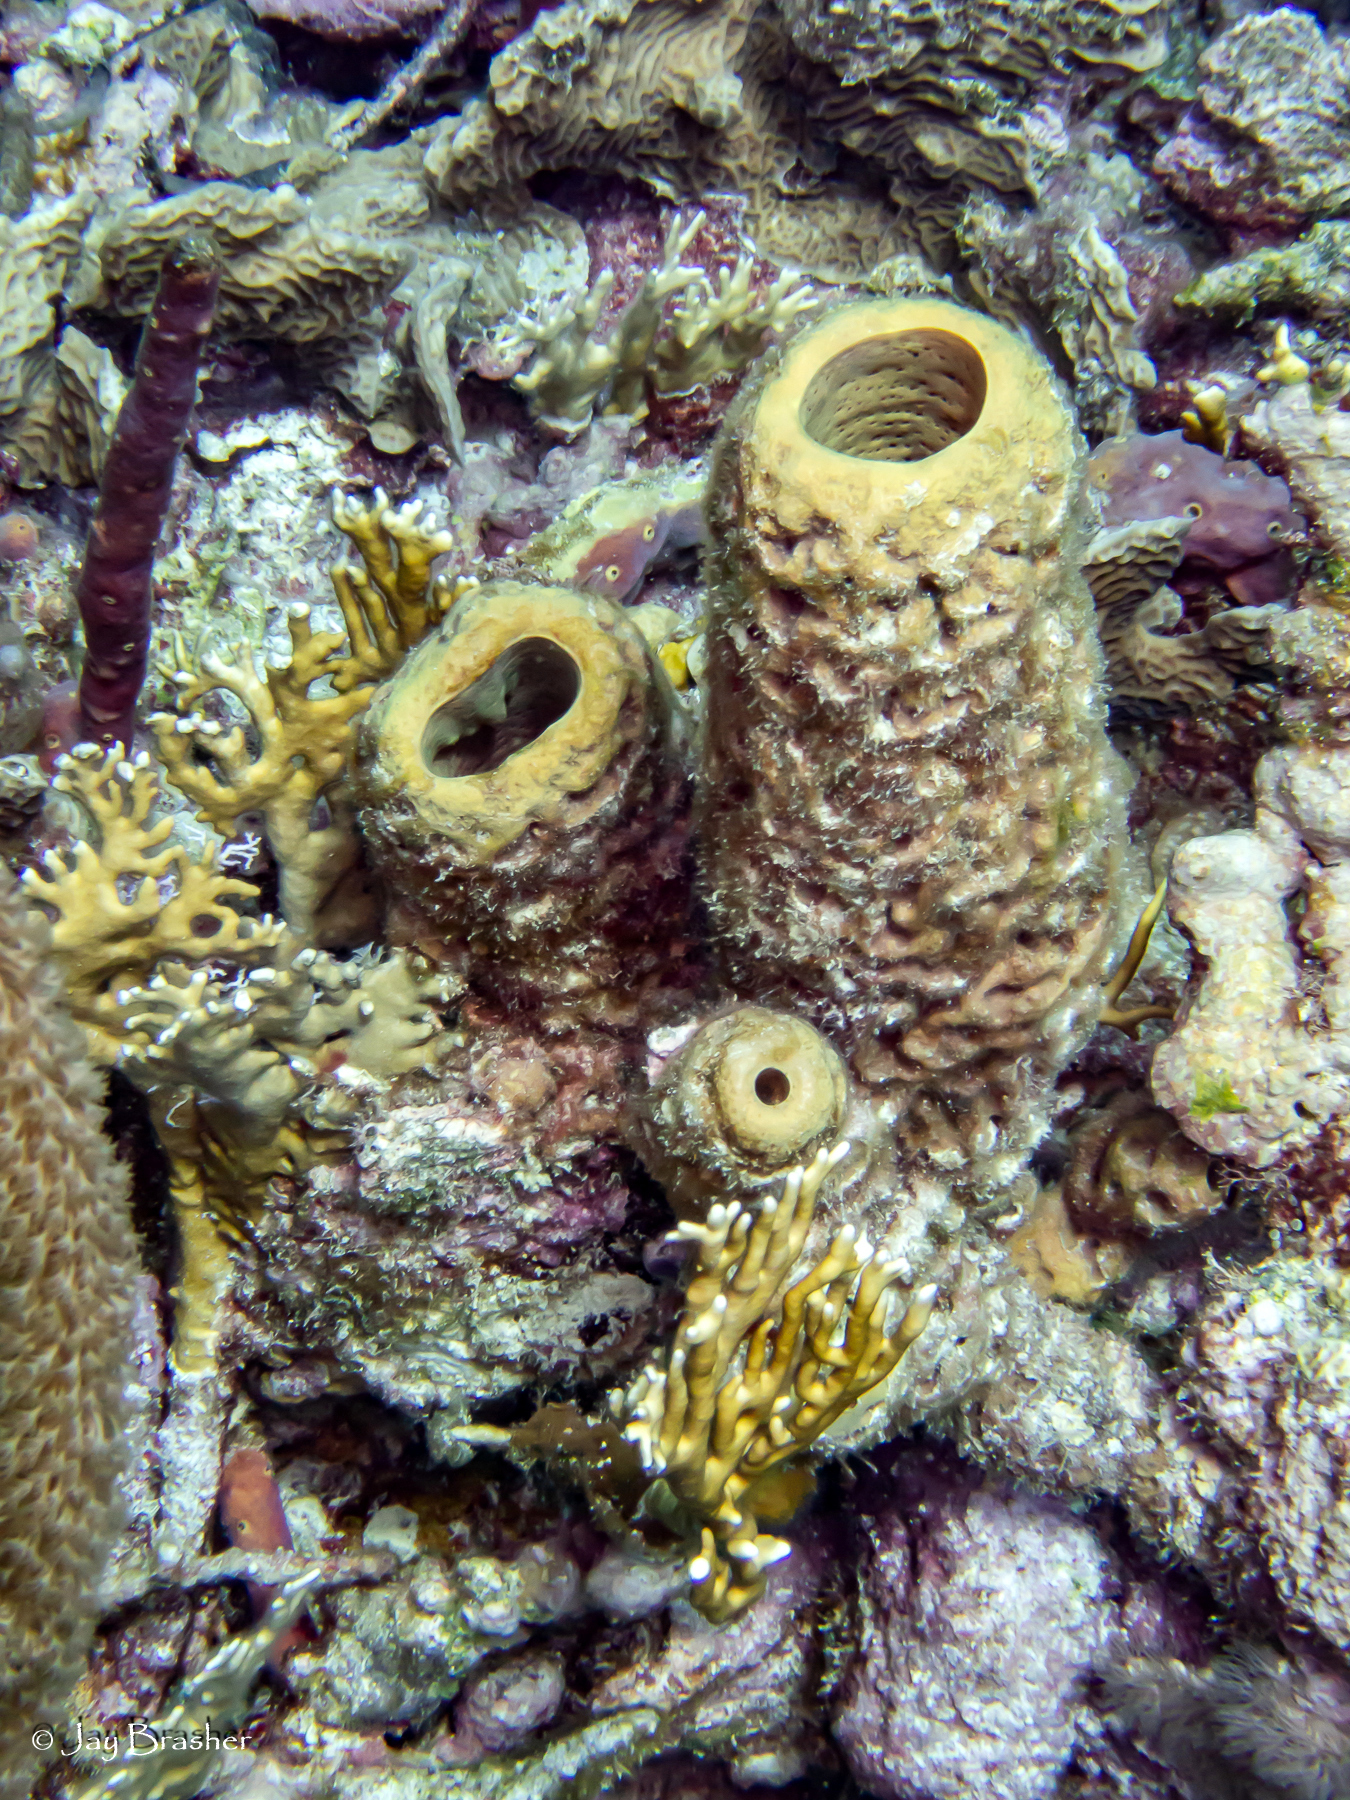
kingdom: Animalia
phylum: Porifera
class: Demospongiae
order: Verongiida
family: Aplysinidae
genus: Aplysina
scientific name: Aplysina archeri
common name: Stove-pipe sponge
